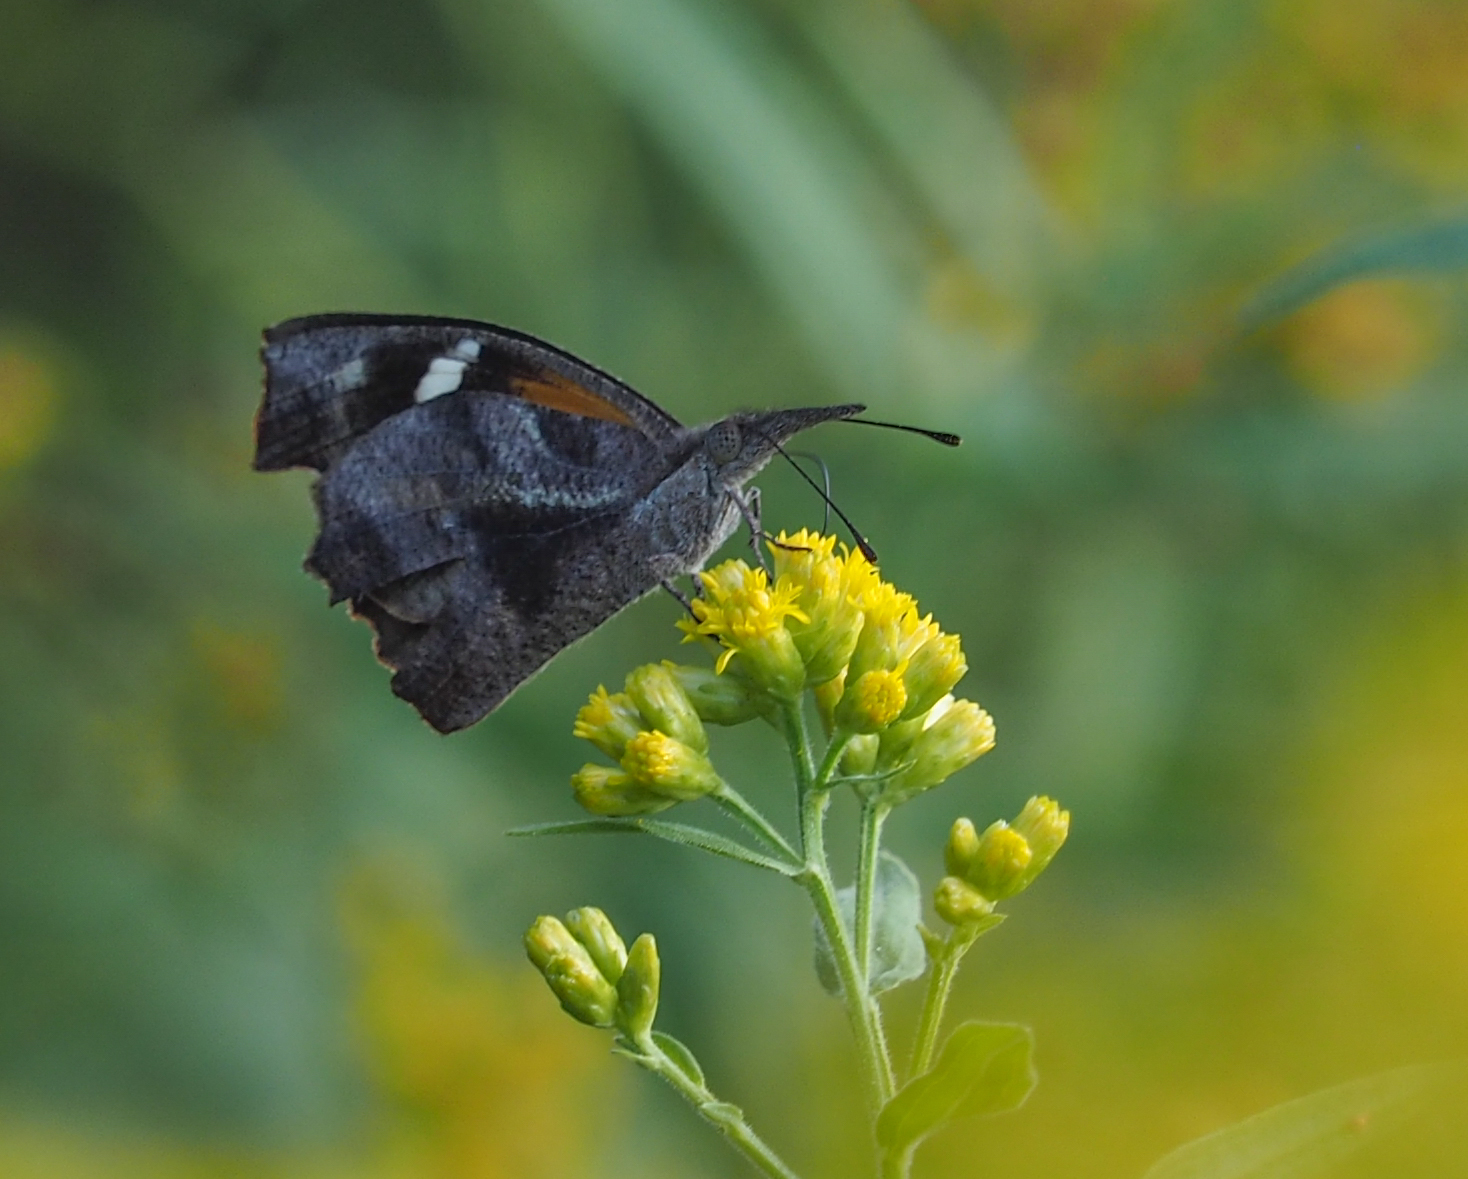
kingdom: Animalia
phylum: Arthropoda
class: Insecta
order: Lepidoptera
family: Nymphalidae
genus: Libytheana
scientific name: Libytheana carinenta
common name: American snout
